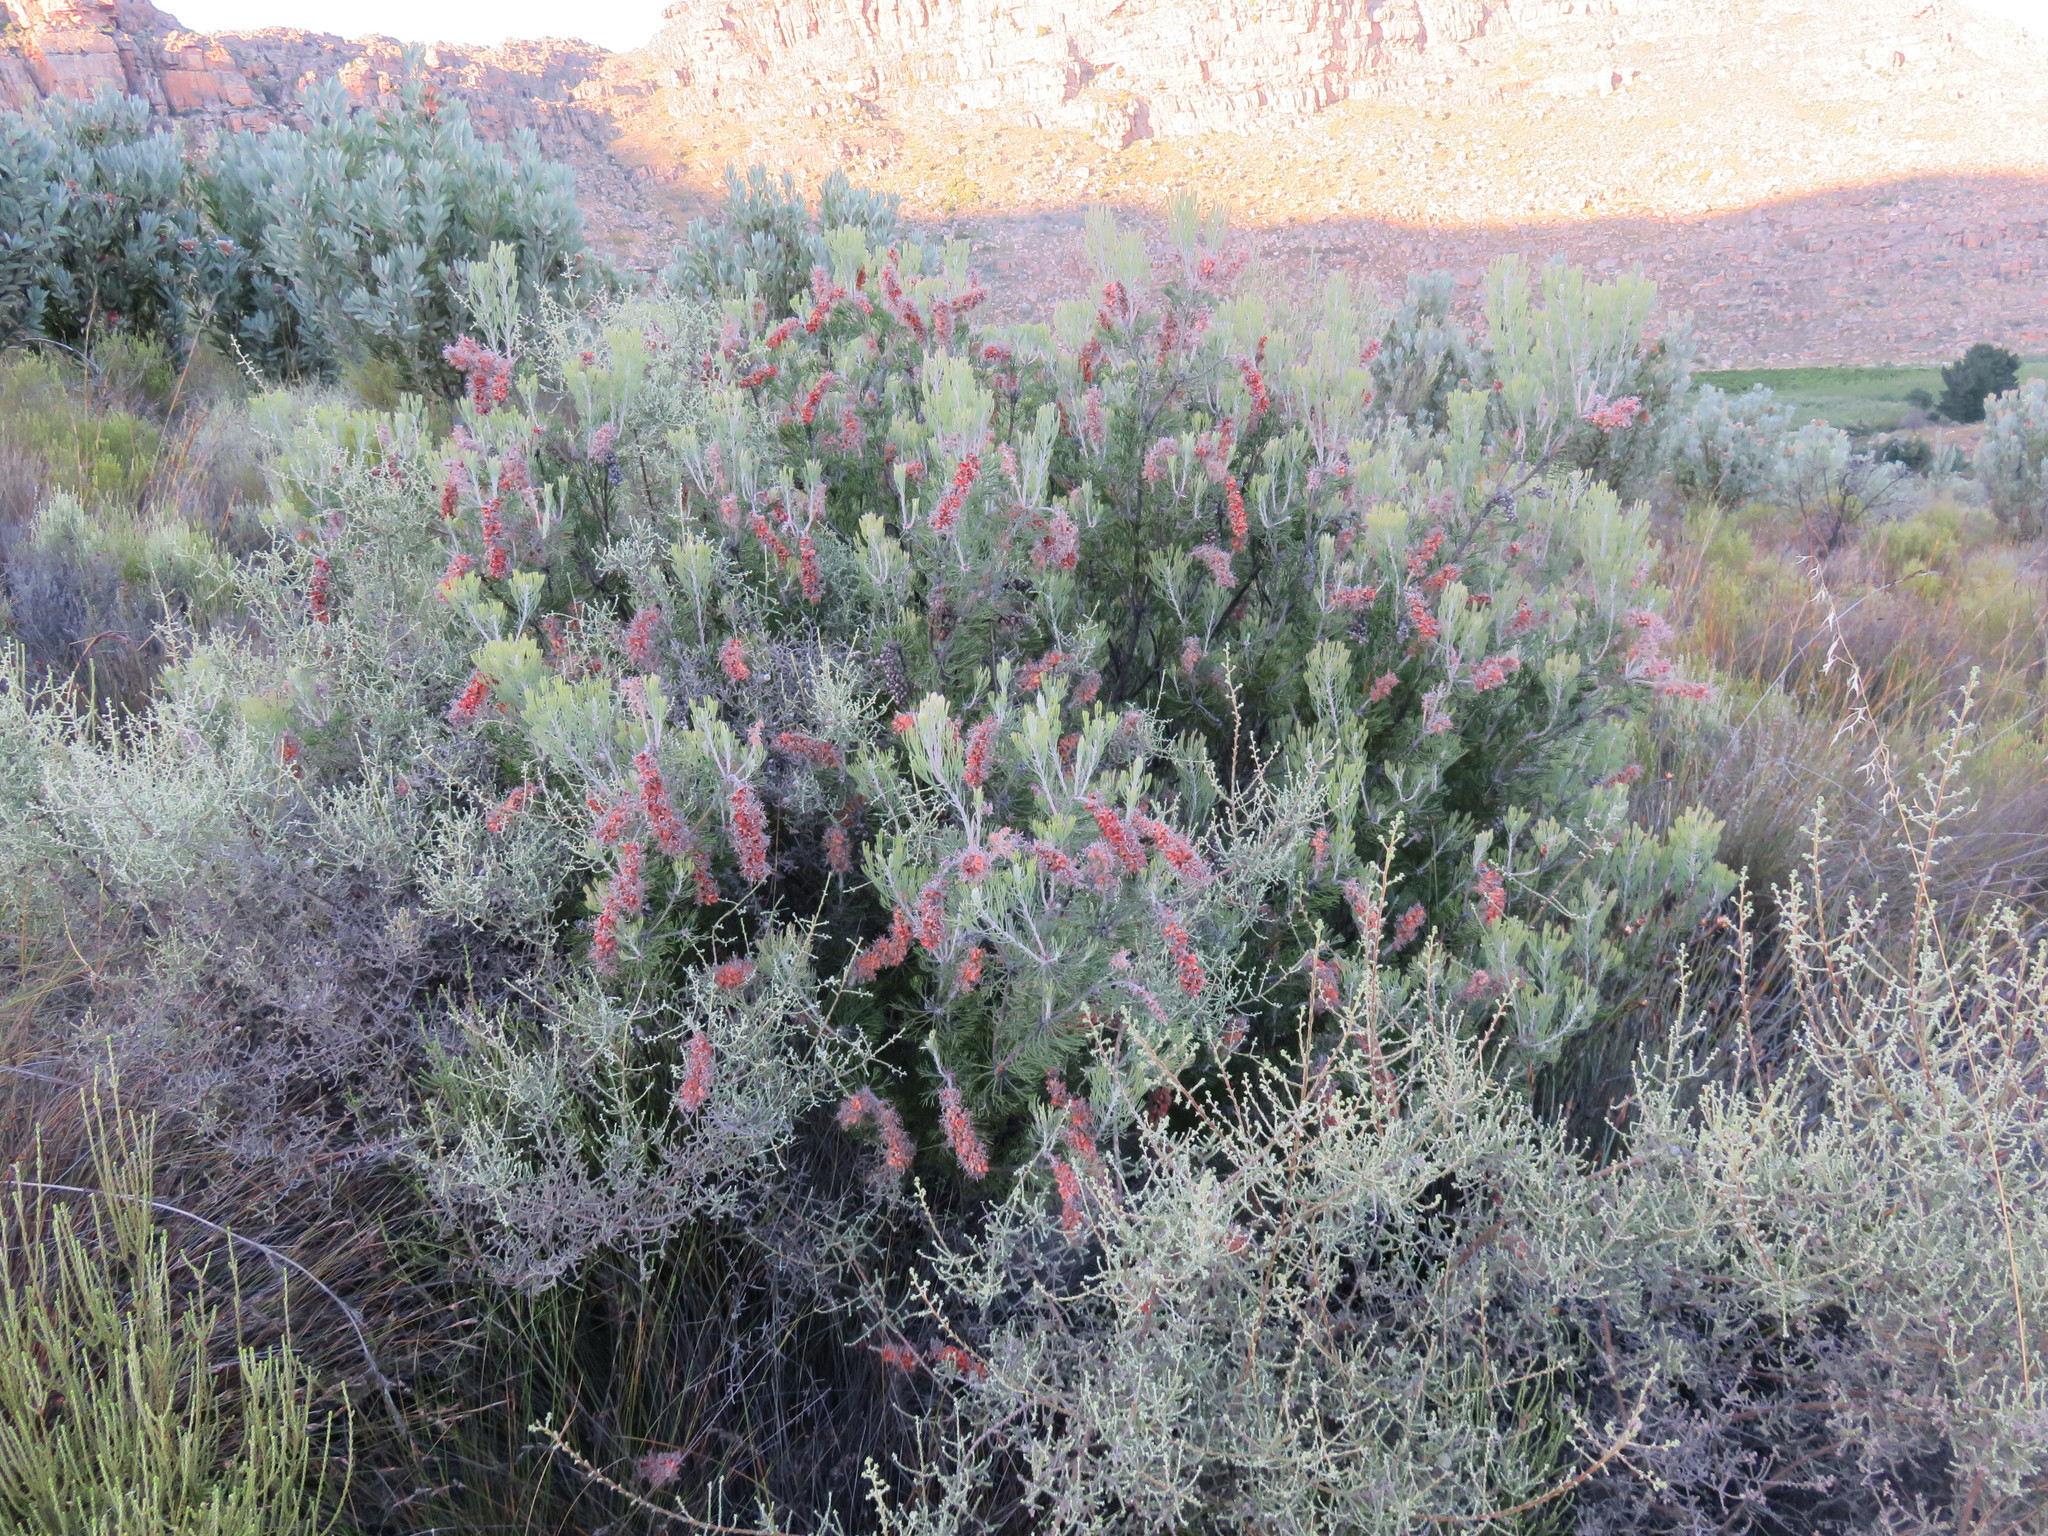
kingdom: Plantae
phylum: Tracheophyta
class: Magnoliopsida
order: Proteales
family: Proteaceae
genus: Paranomus
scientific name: Paranomus bracteolaris
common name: Bokkeveld tree sceptre
